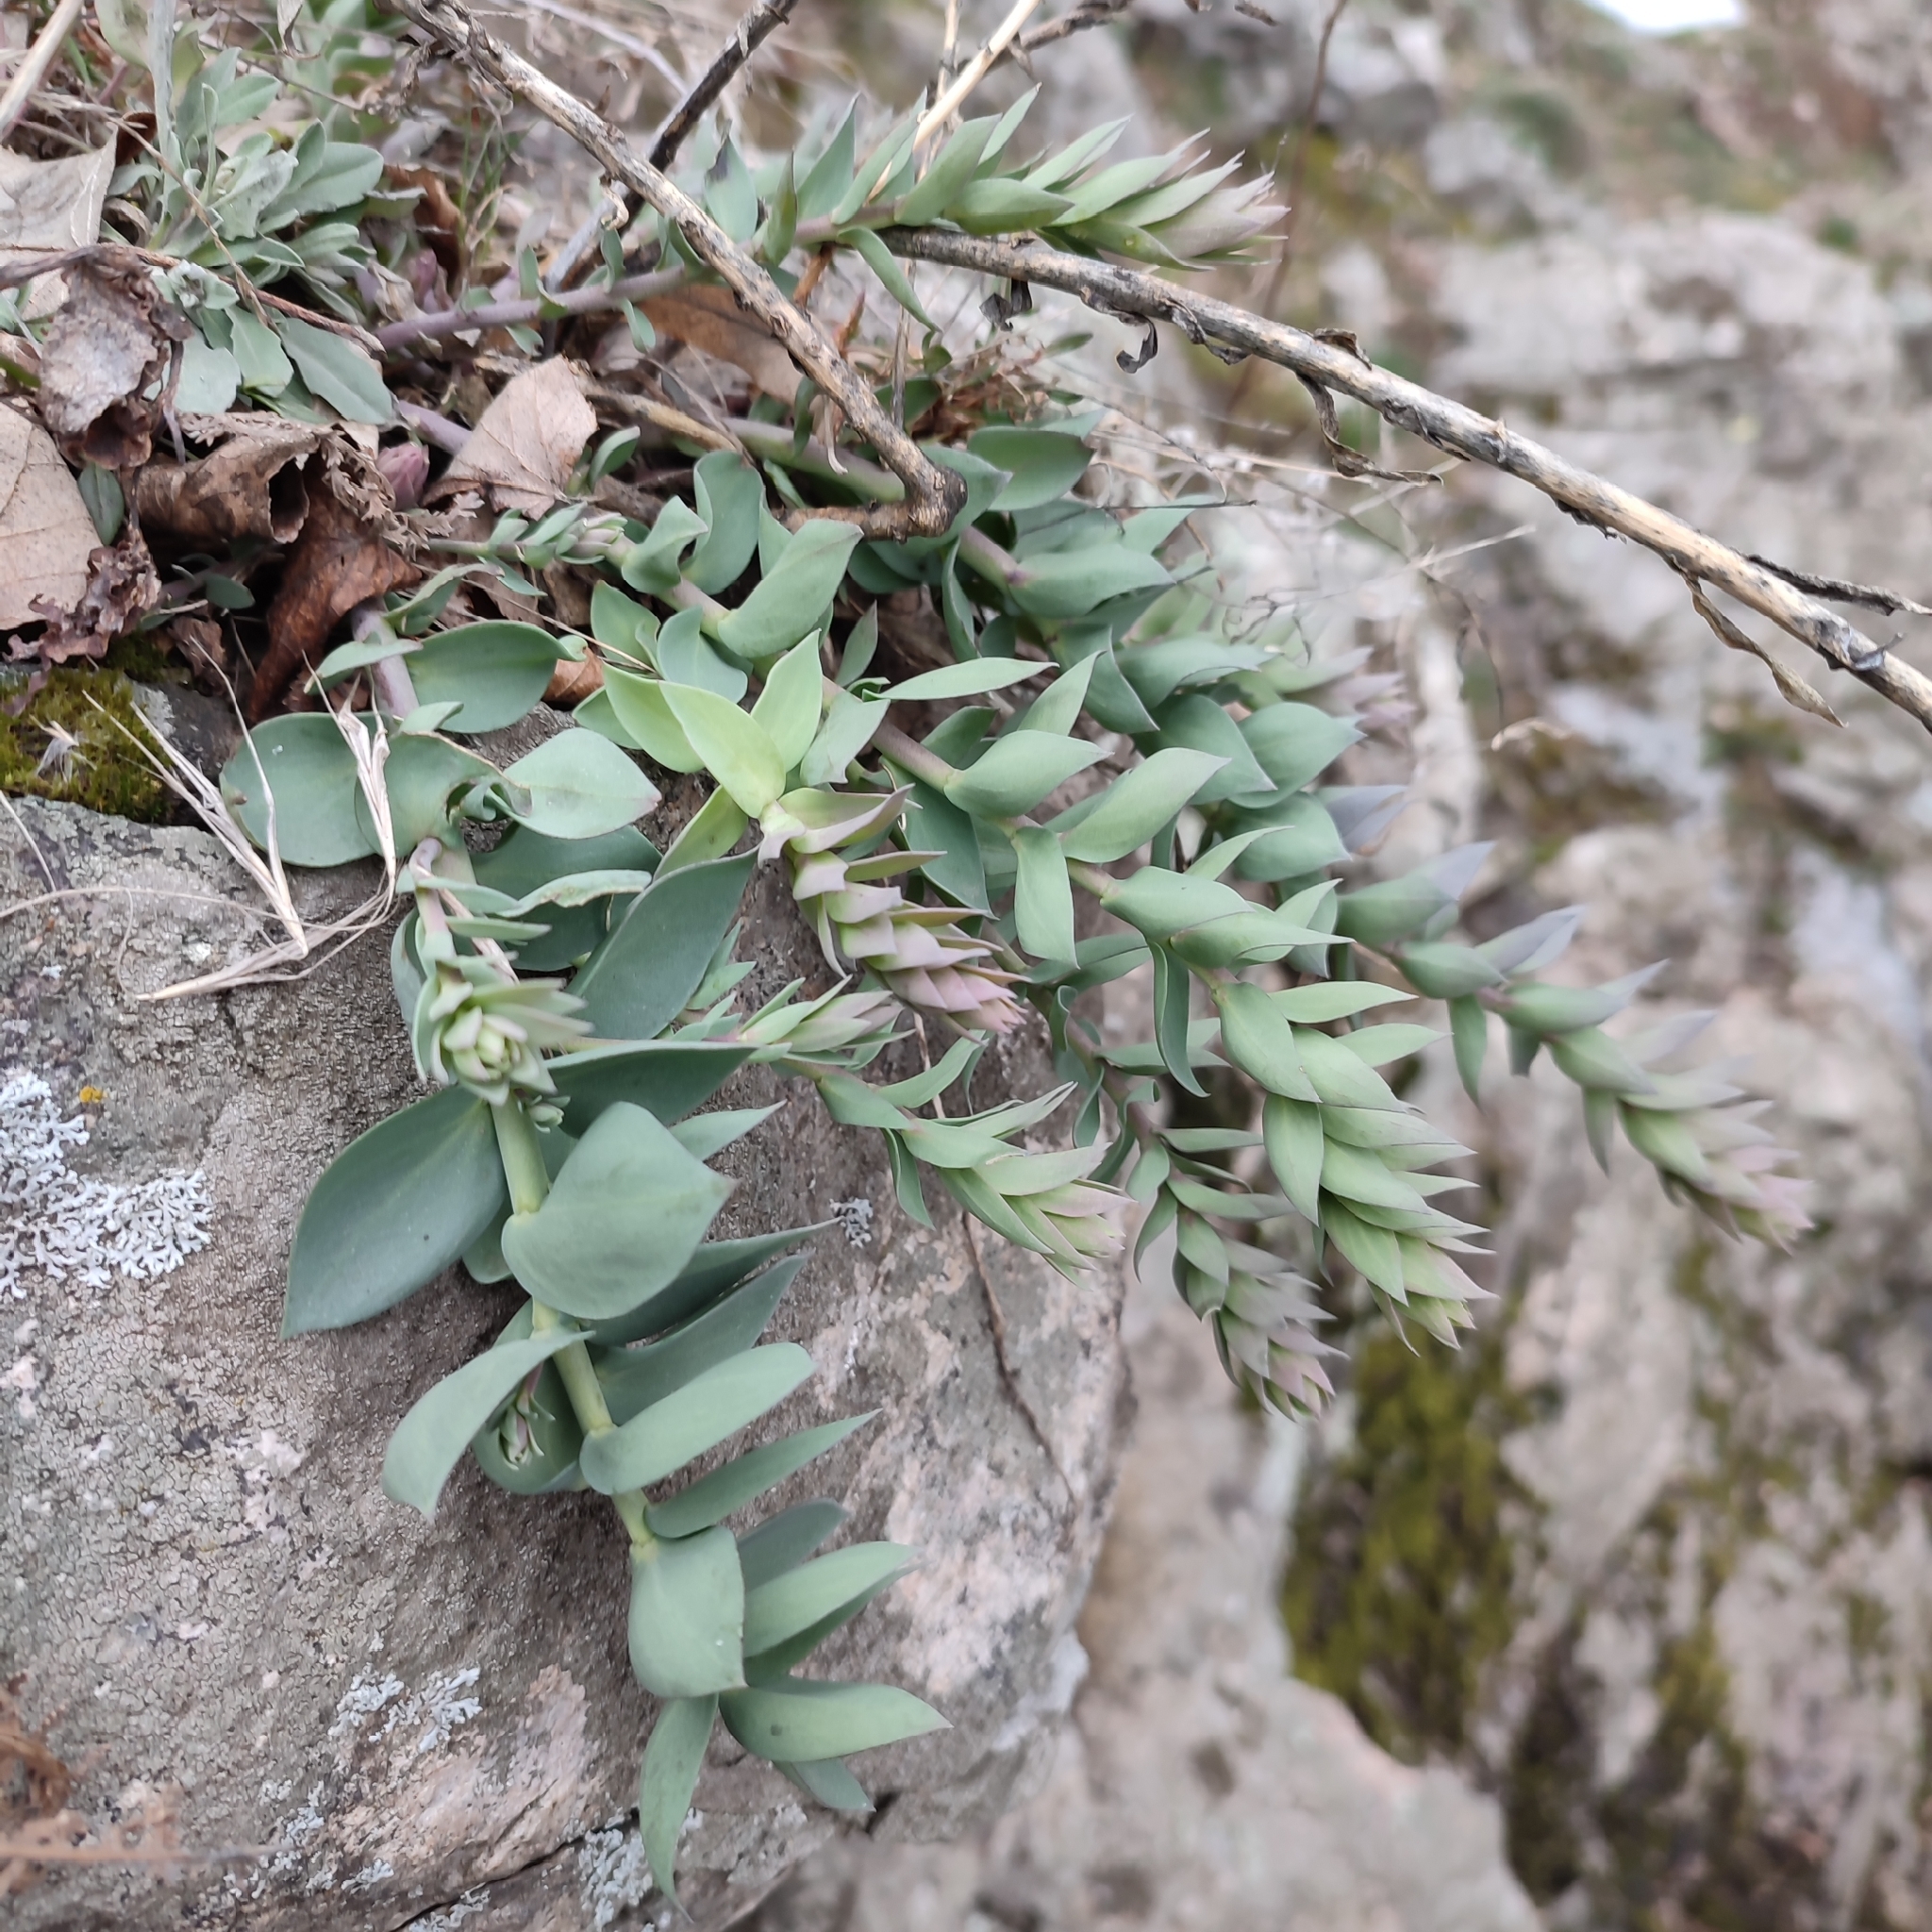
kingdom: Plantae
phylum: Tracheophyta
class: Magnoliopsida
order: Lamiales
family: Plantaginaceae
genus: Linaria
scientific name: Linaria genistifolia
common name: Broomleaf toadflax
